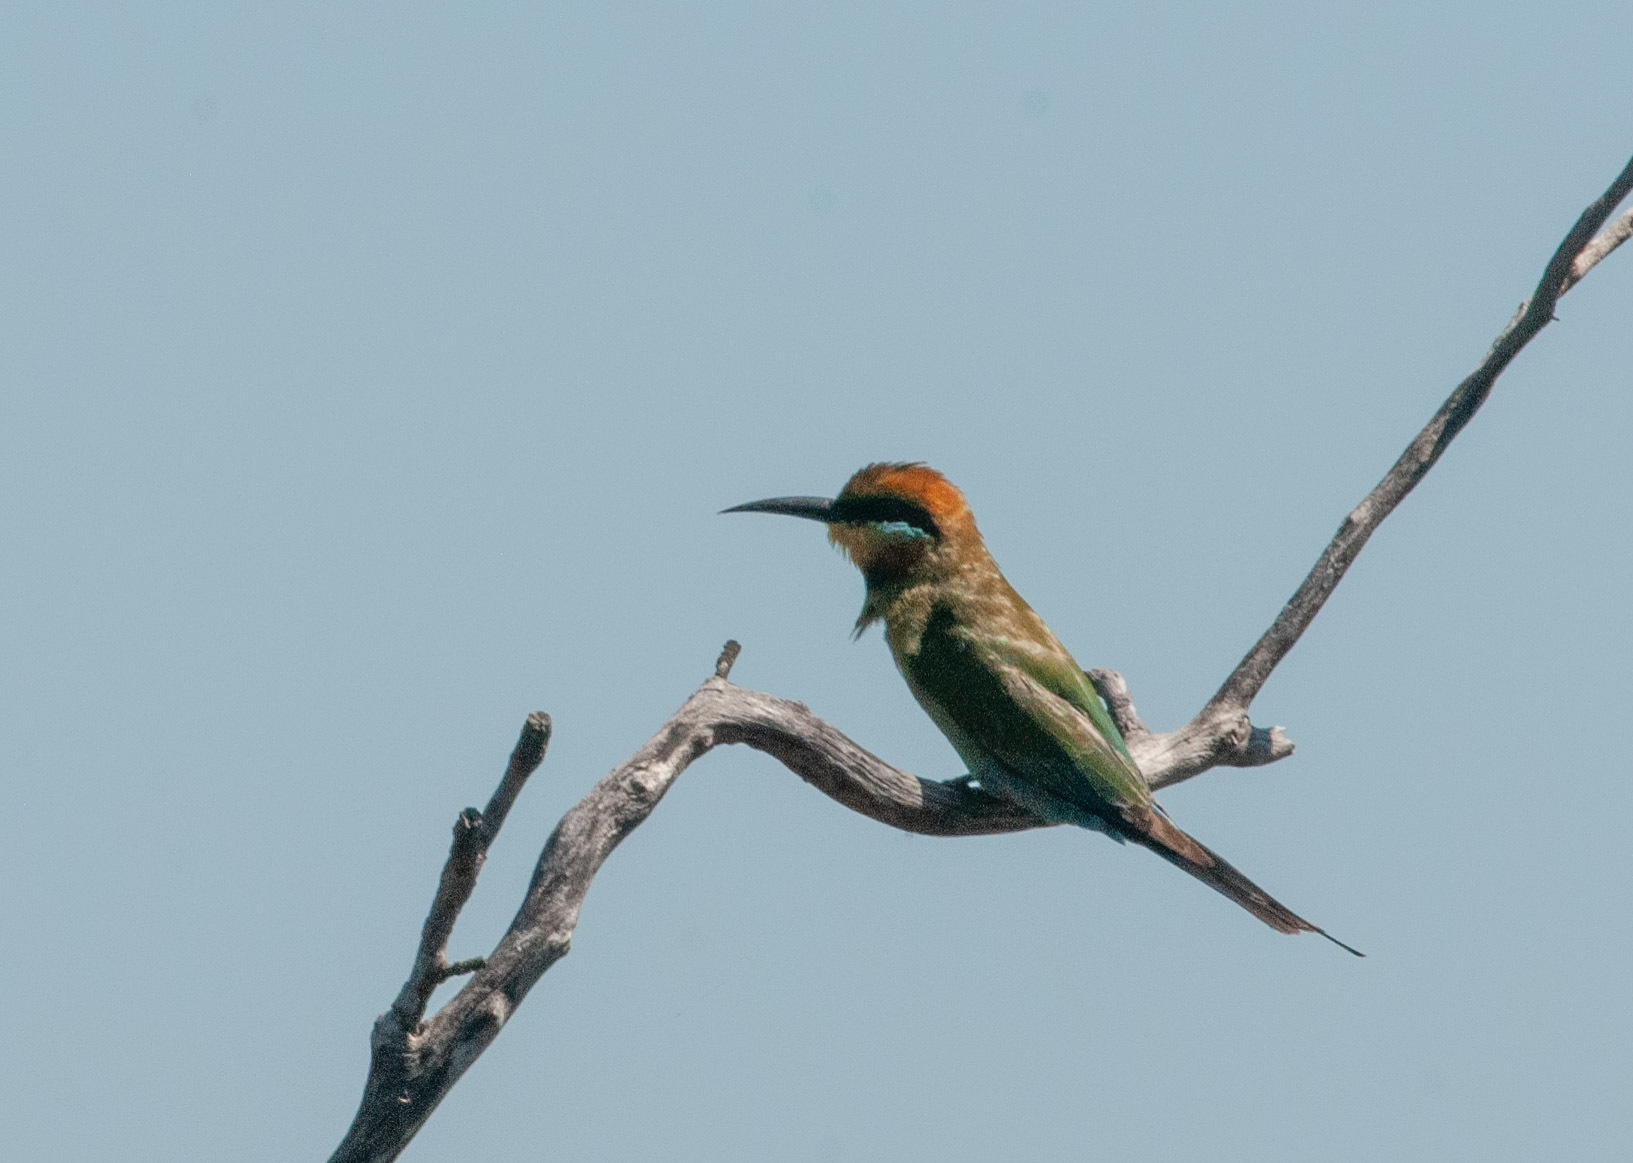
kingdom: Animalia
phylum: Chordata
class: Aves
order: Coraciiformes
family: Meropidae
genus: Merops
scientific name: Merops ornatus
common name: Rainbow bee-eater
